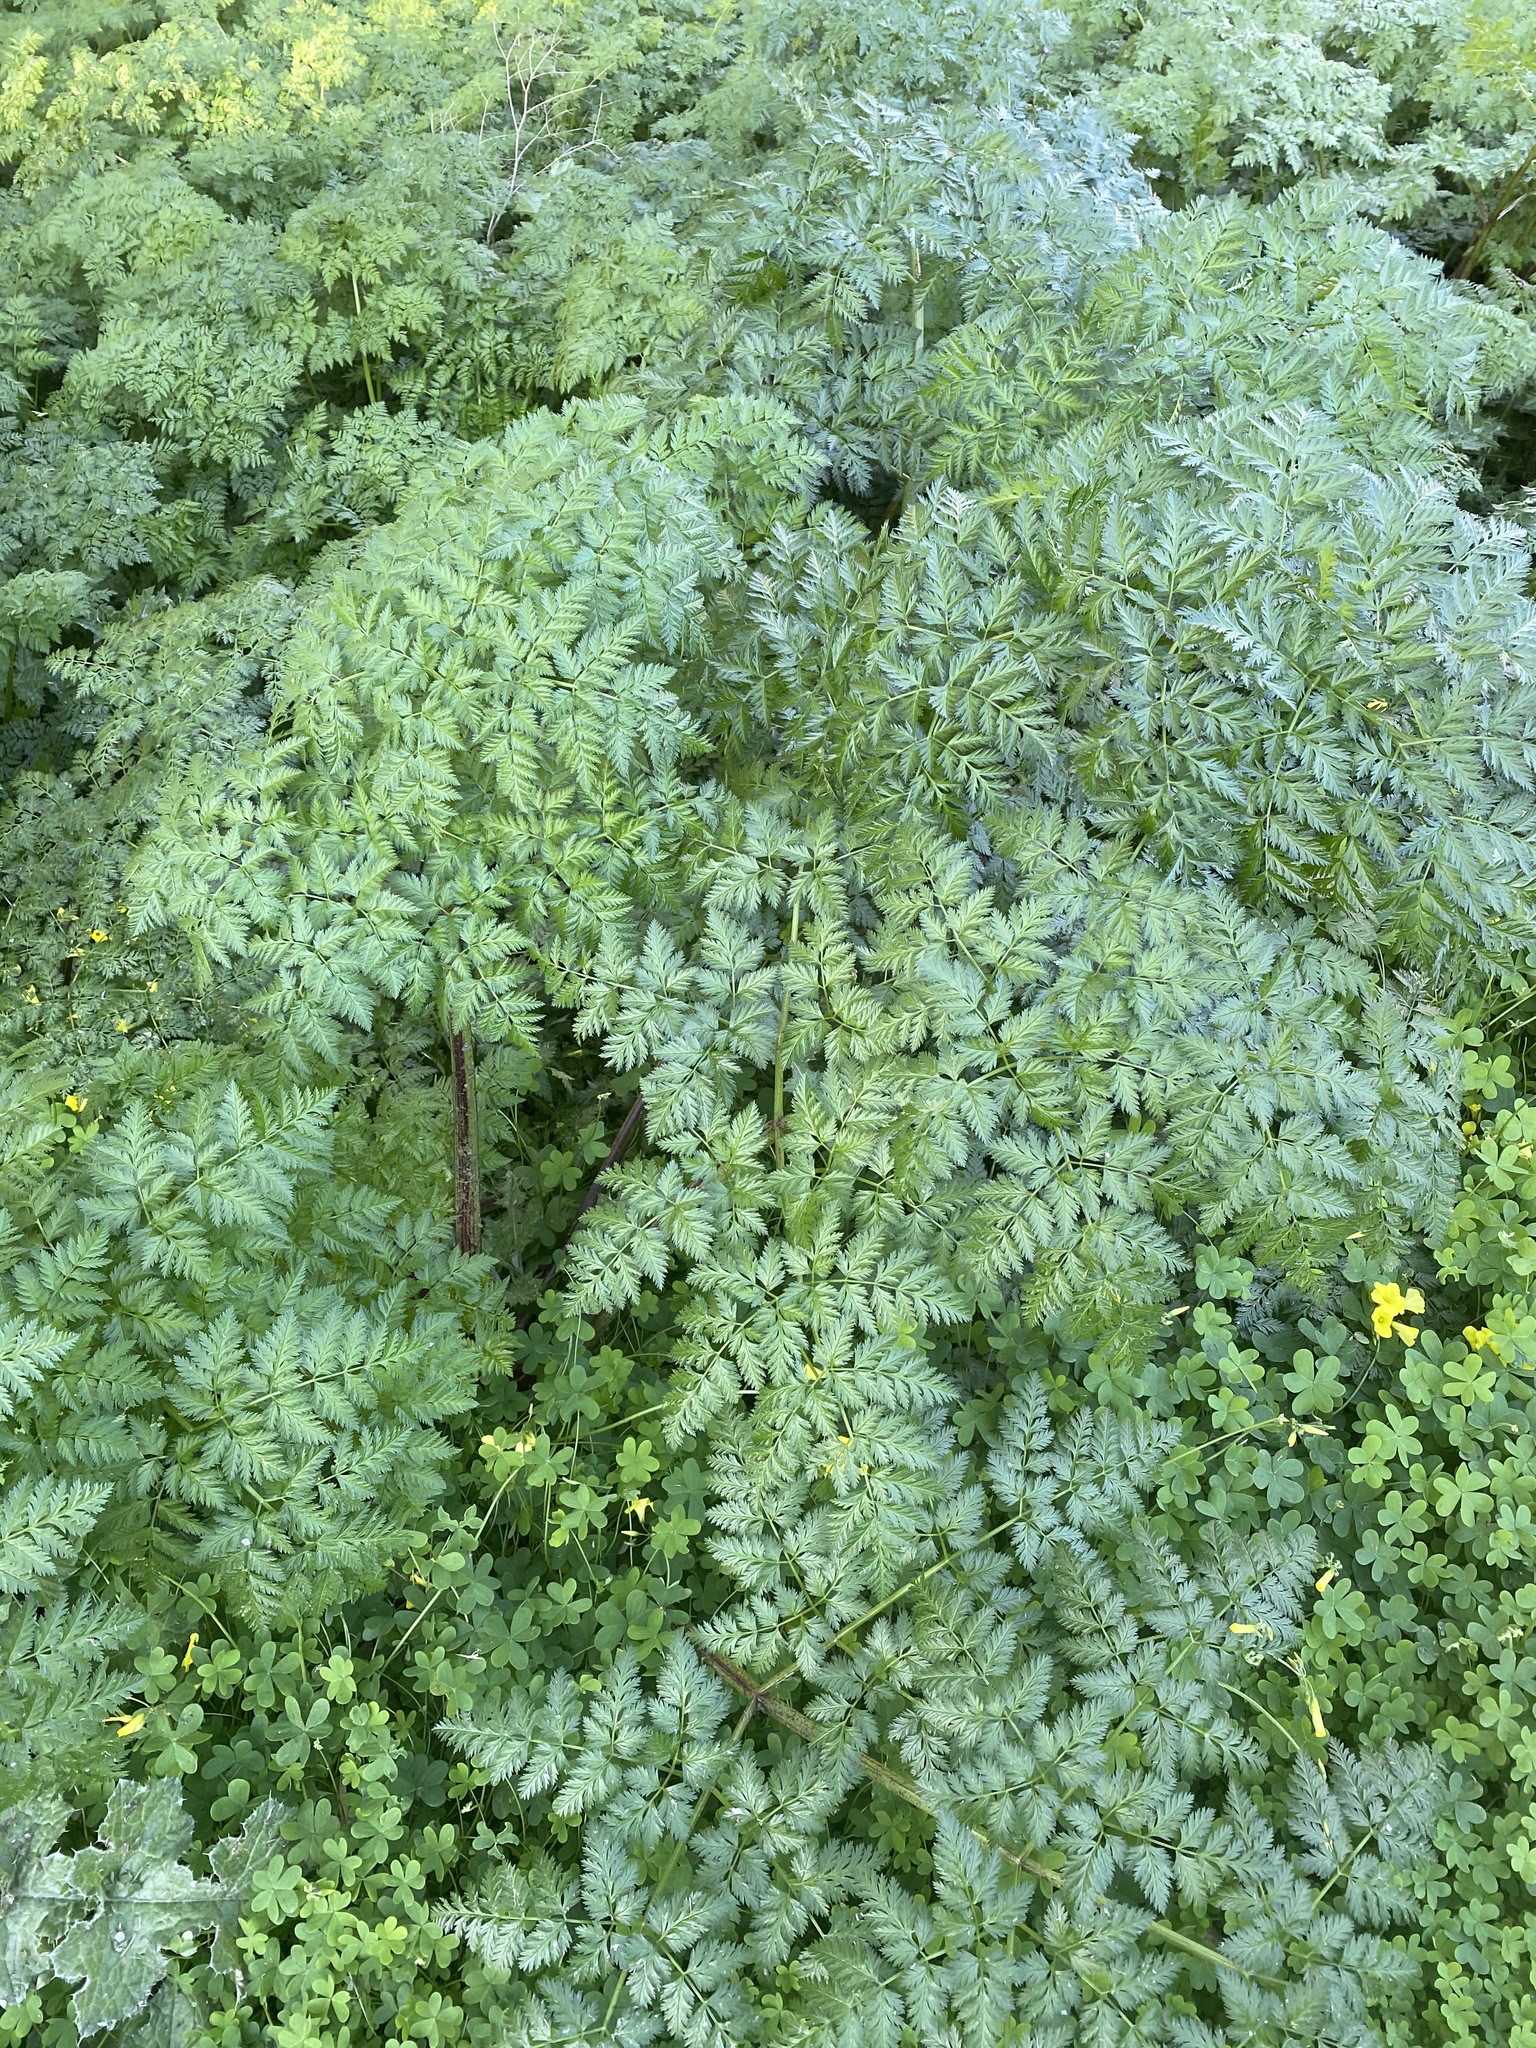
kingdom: Plantae
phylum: Tracheophyta
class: Magnoliopsida
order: Apiales
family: Apiaceae
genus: Conium
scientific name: Conium maculatum
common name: Hemlock
